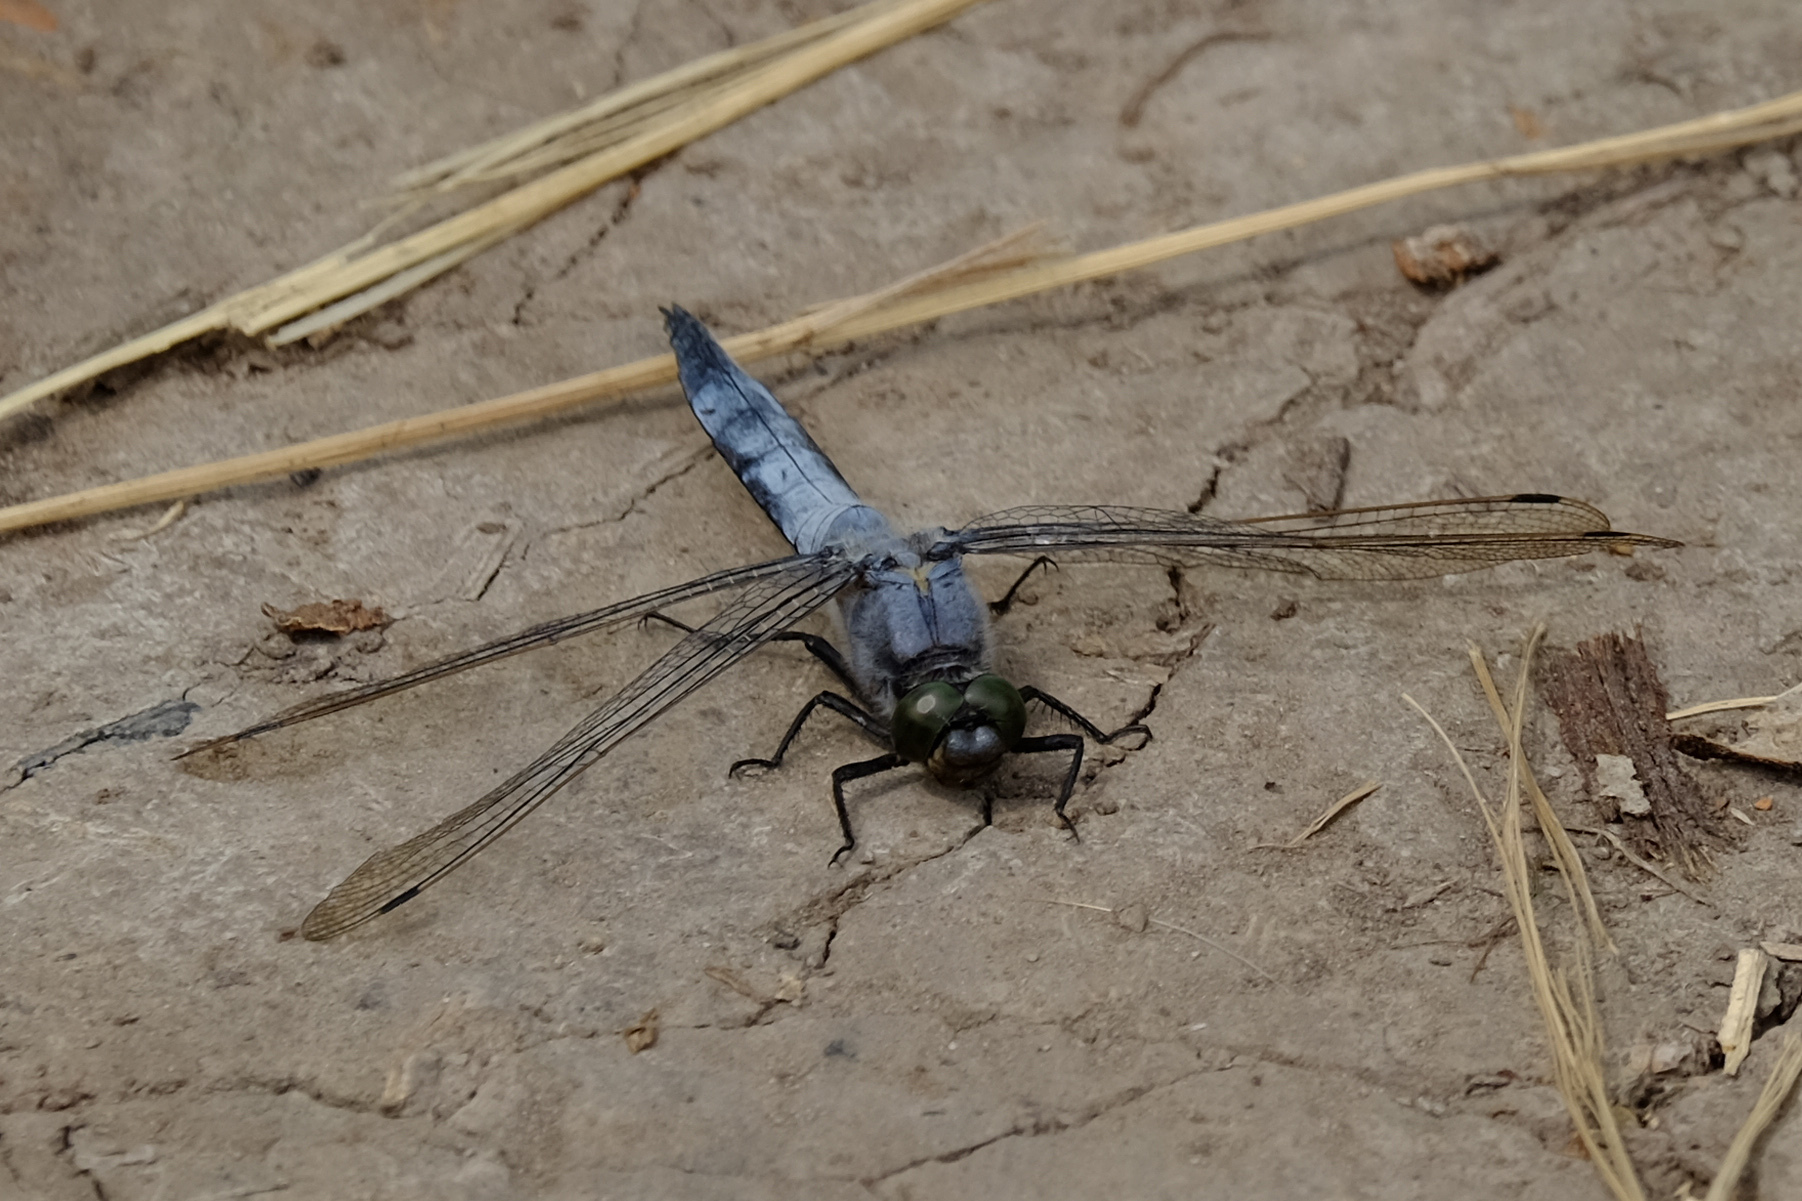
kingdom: Animalia
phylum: Arthropoda
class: Insecta
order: Odonata
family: Libellulidae
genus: Orthetrum
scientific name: Orthetrum cancellatum
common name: Black-tailed skimmer
